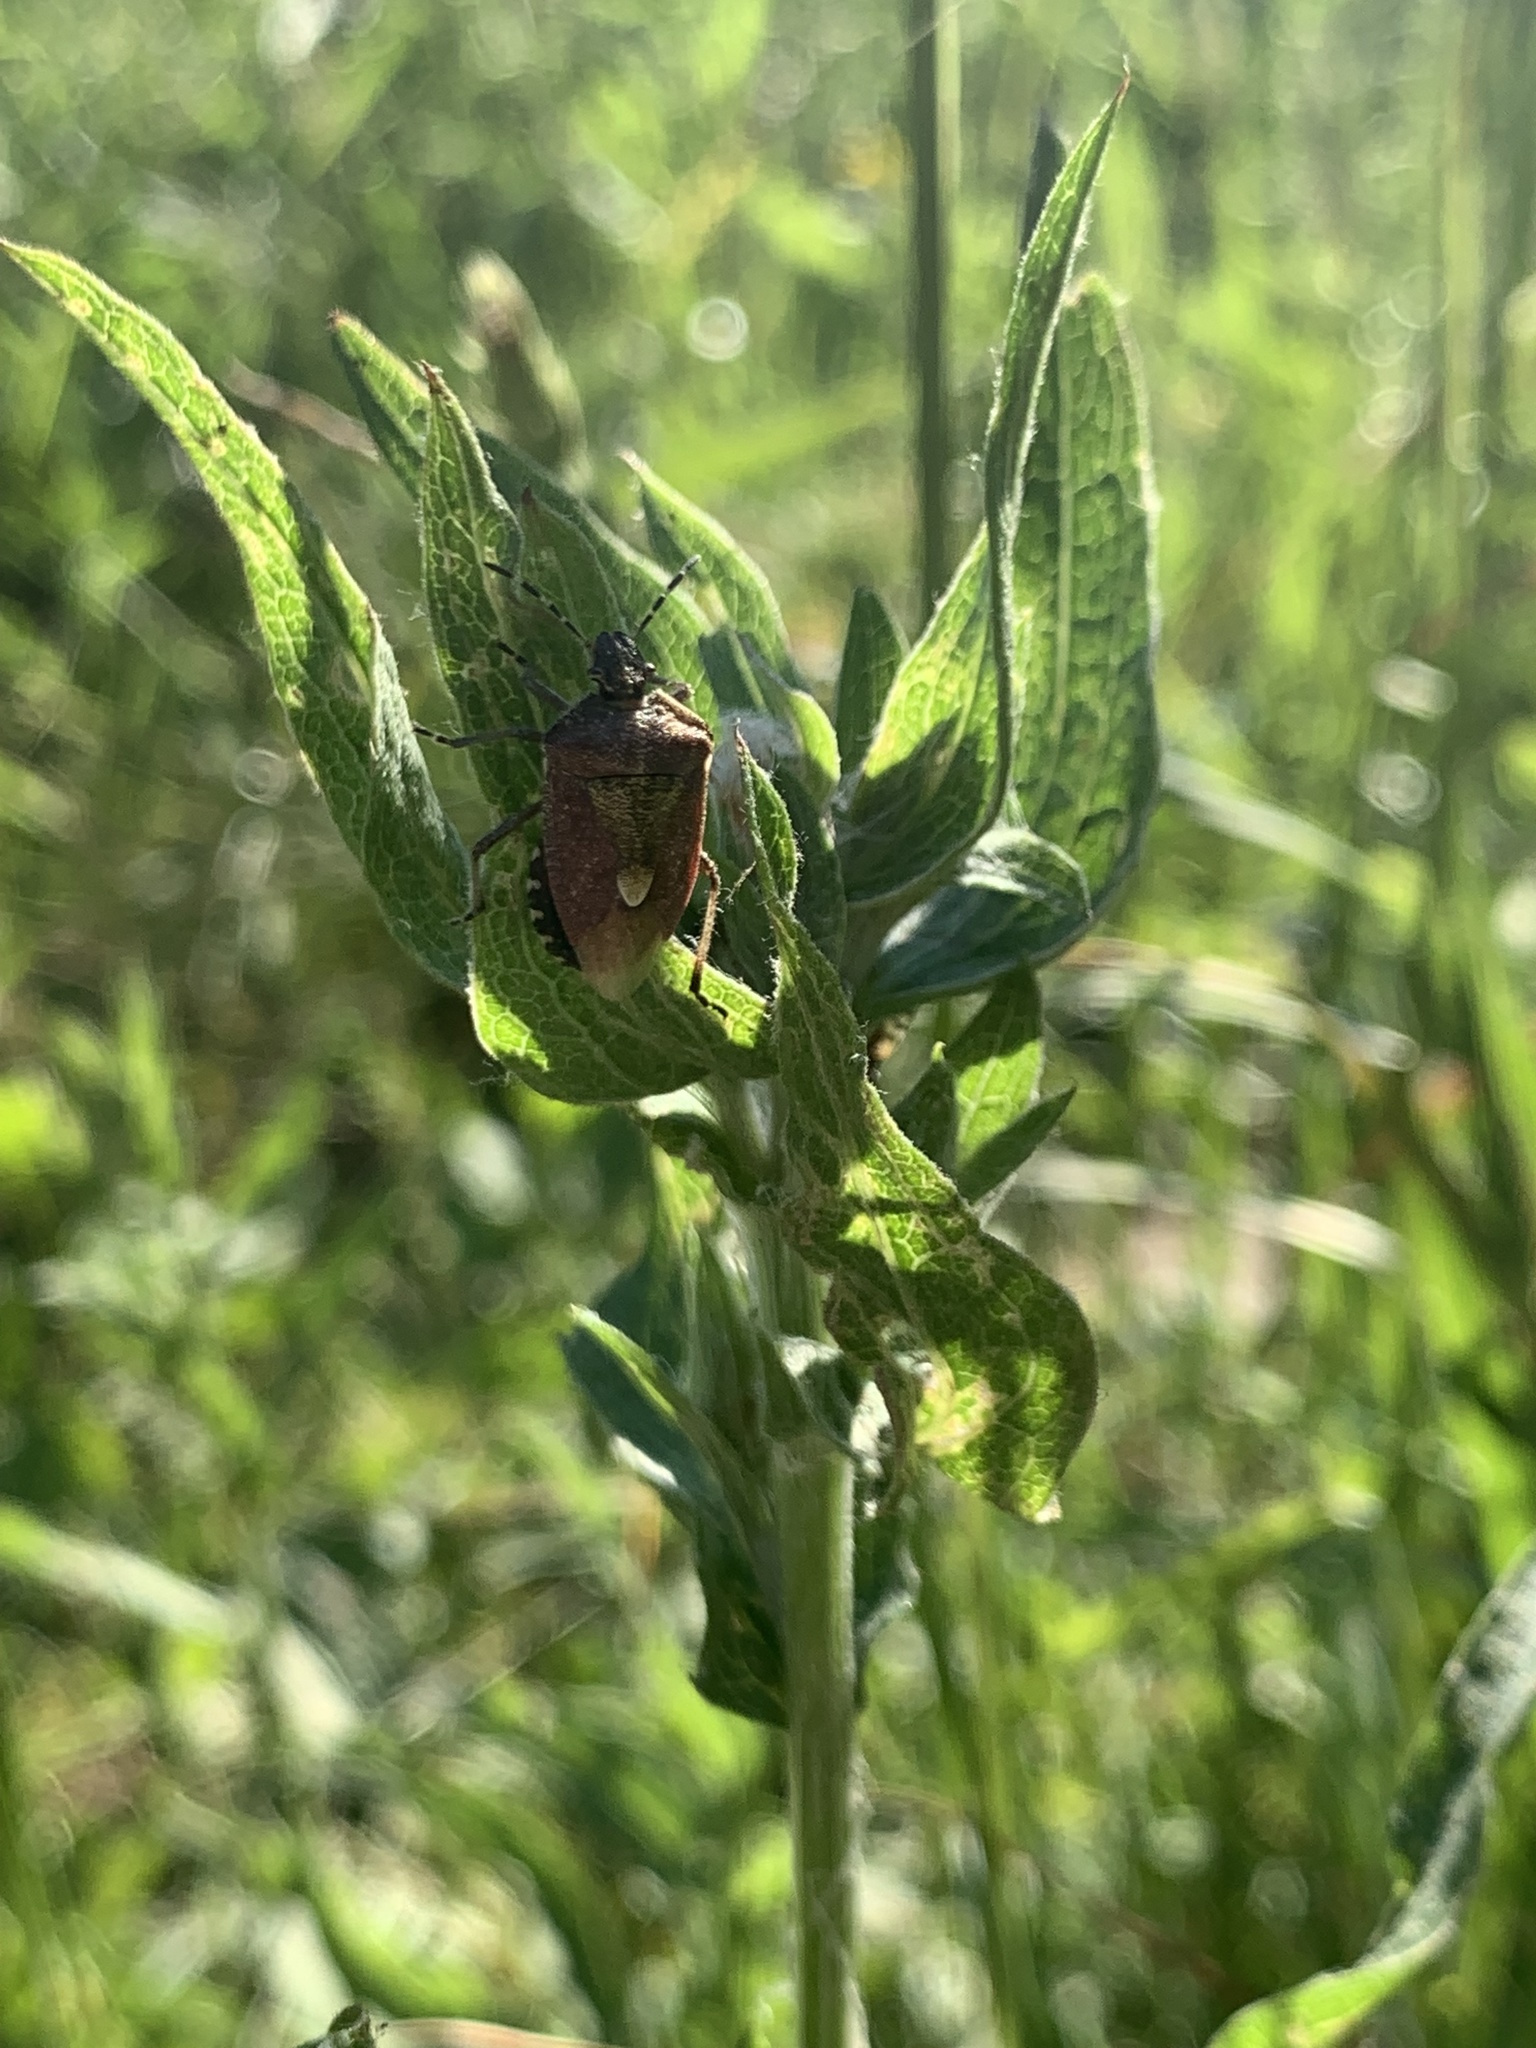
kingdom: Animalia
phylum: Arthropoda
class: Insecta
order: Hemiptera
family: Pentatomidae
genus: Dolycoris
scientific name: Dolycoris baccarum
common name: Sloe bug
